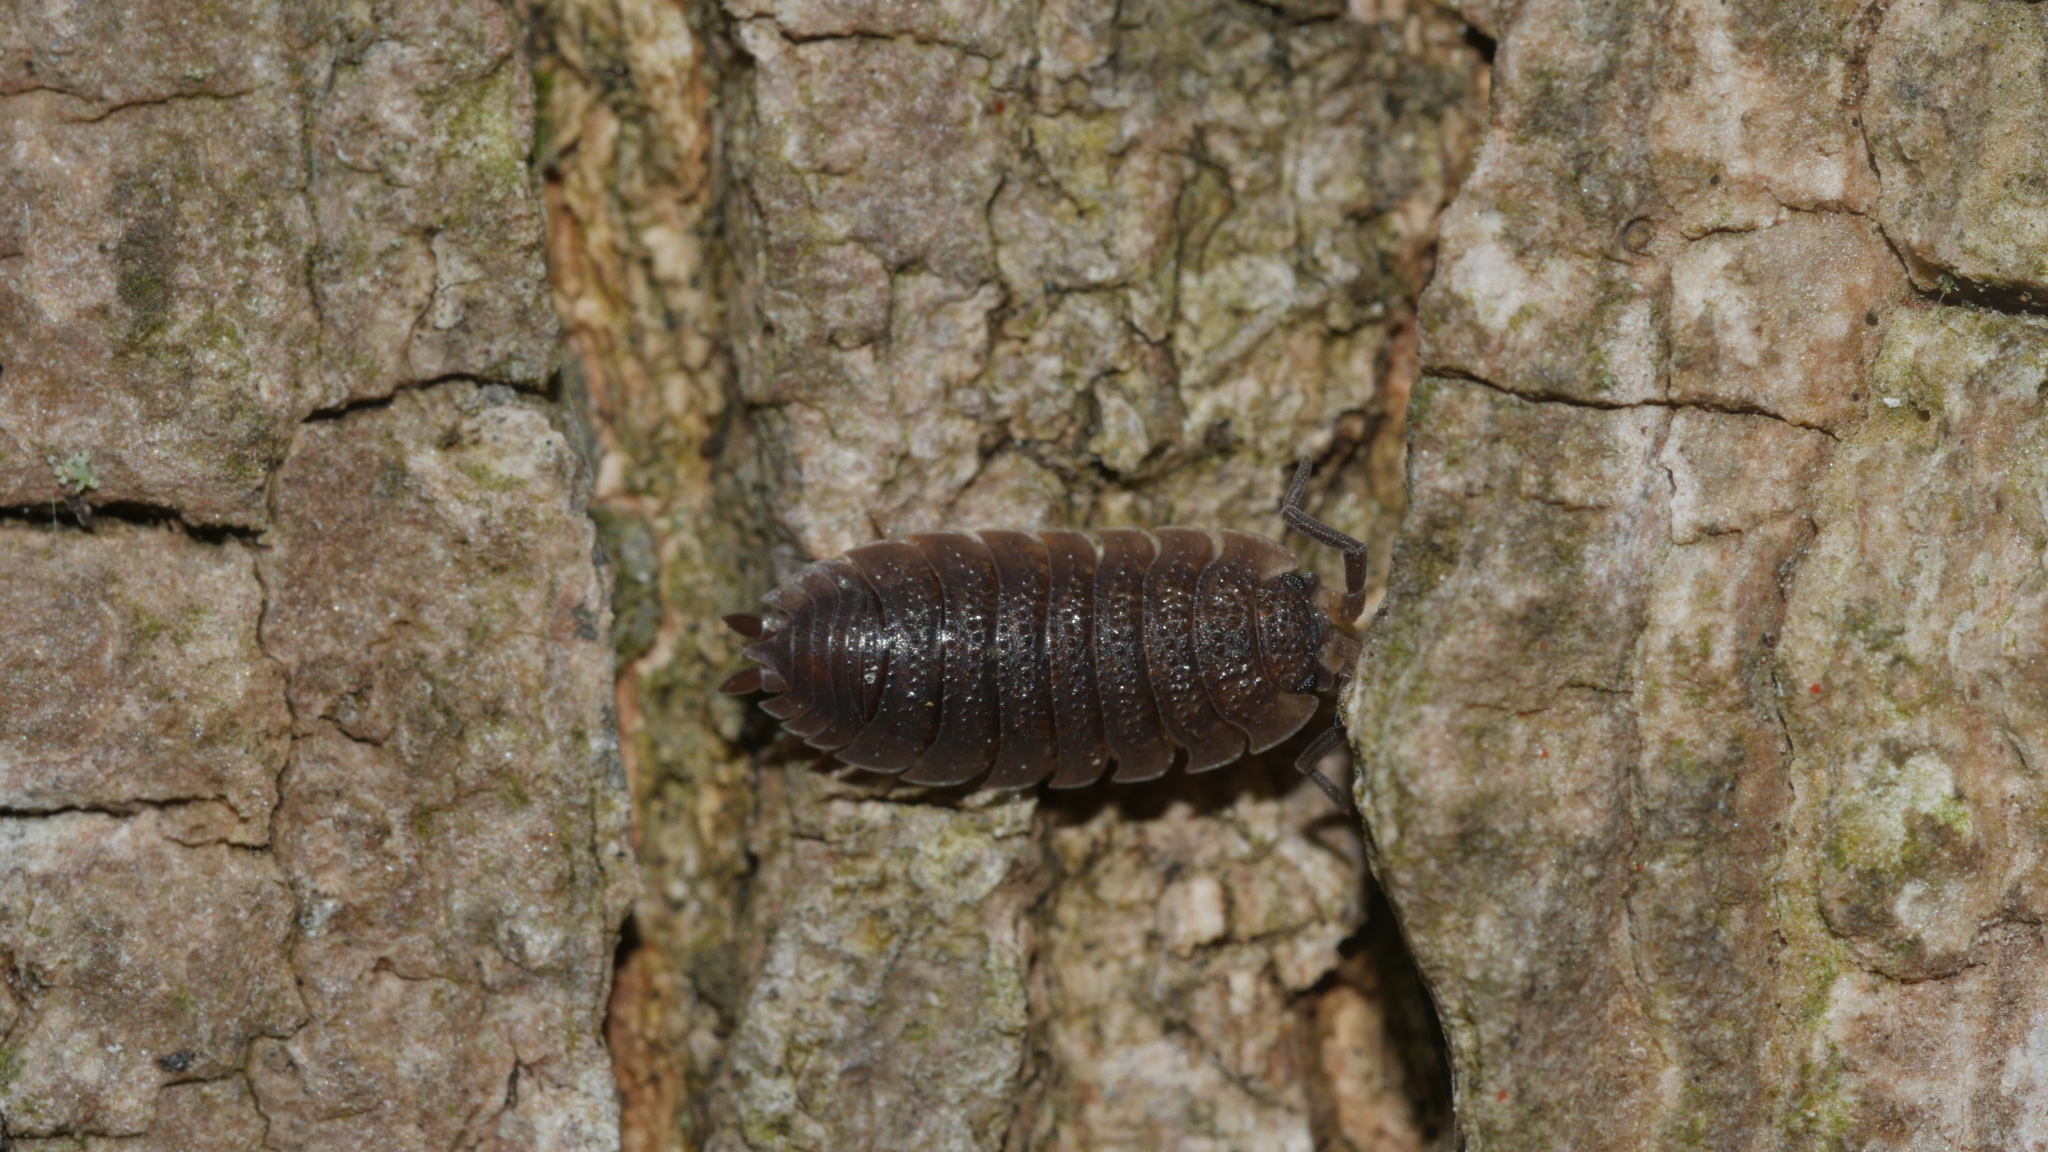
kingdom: Animalia
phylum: Arthropoda
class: Malacostraca
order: Isopoda
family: Porcellionidae
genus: Porcellio
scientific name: Porcellio scaber
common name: Common rough woodlouse
